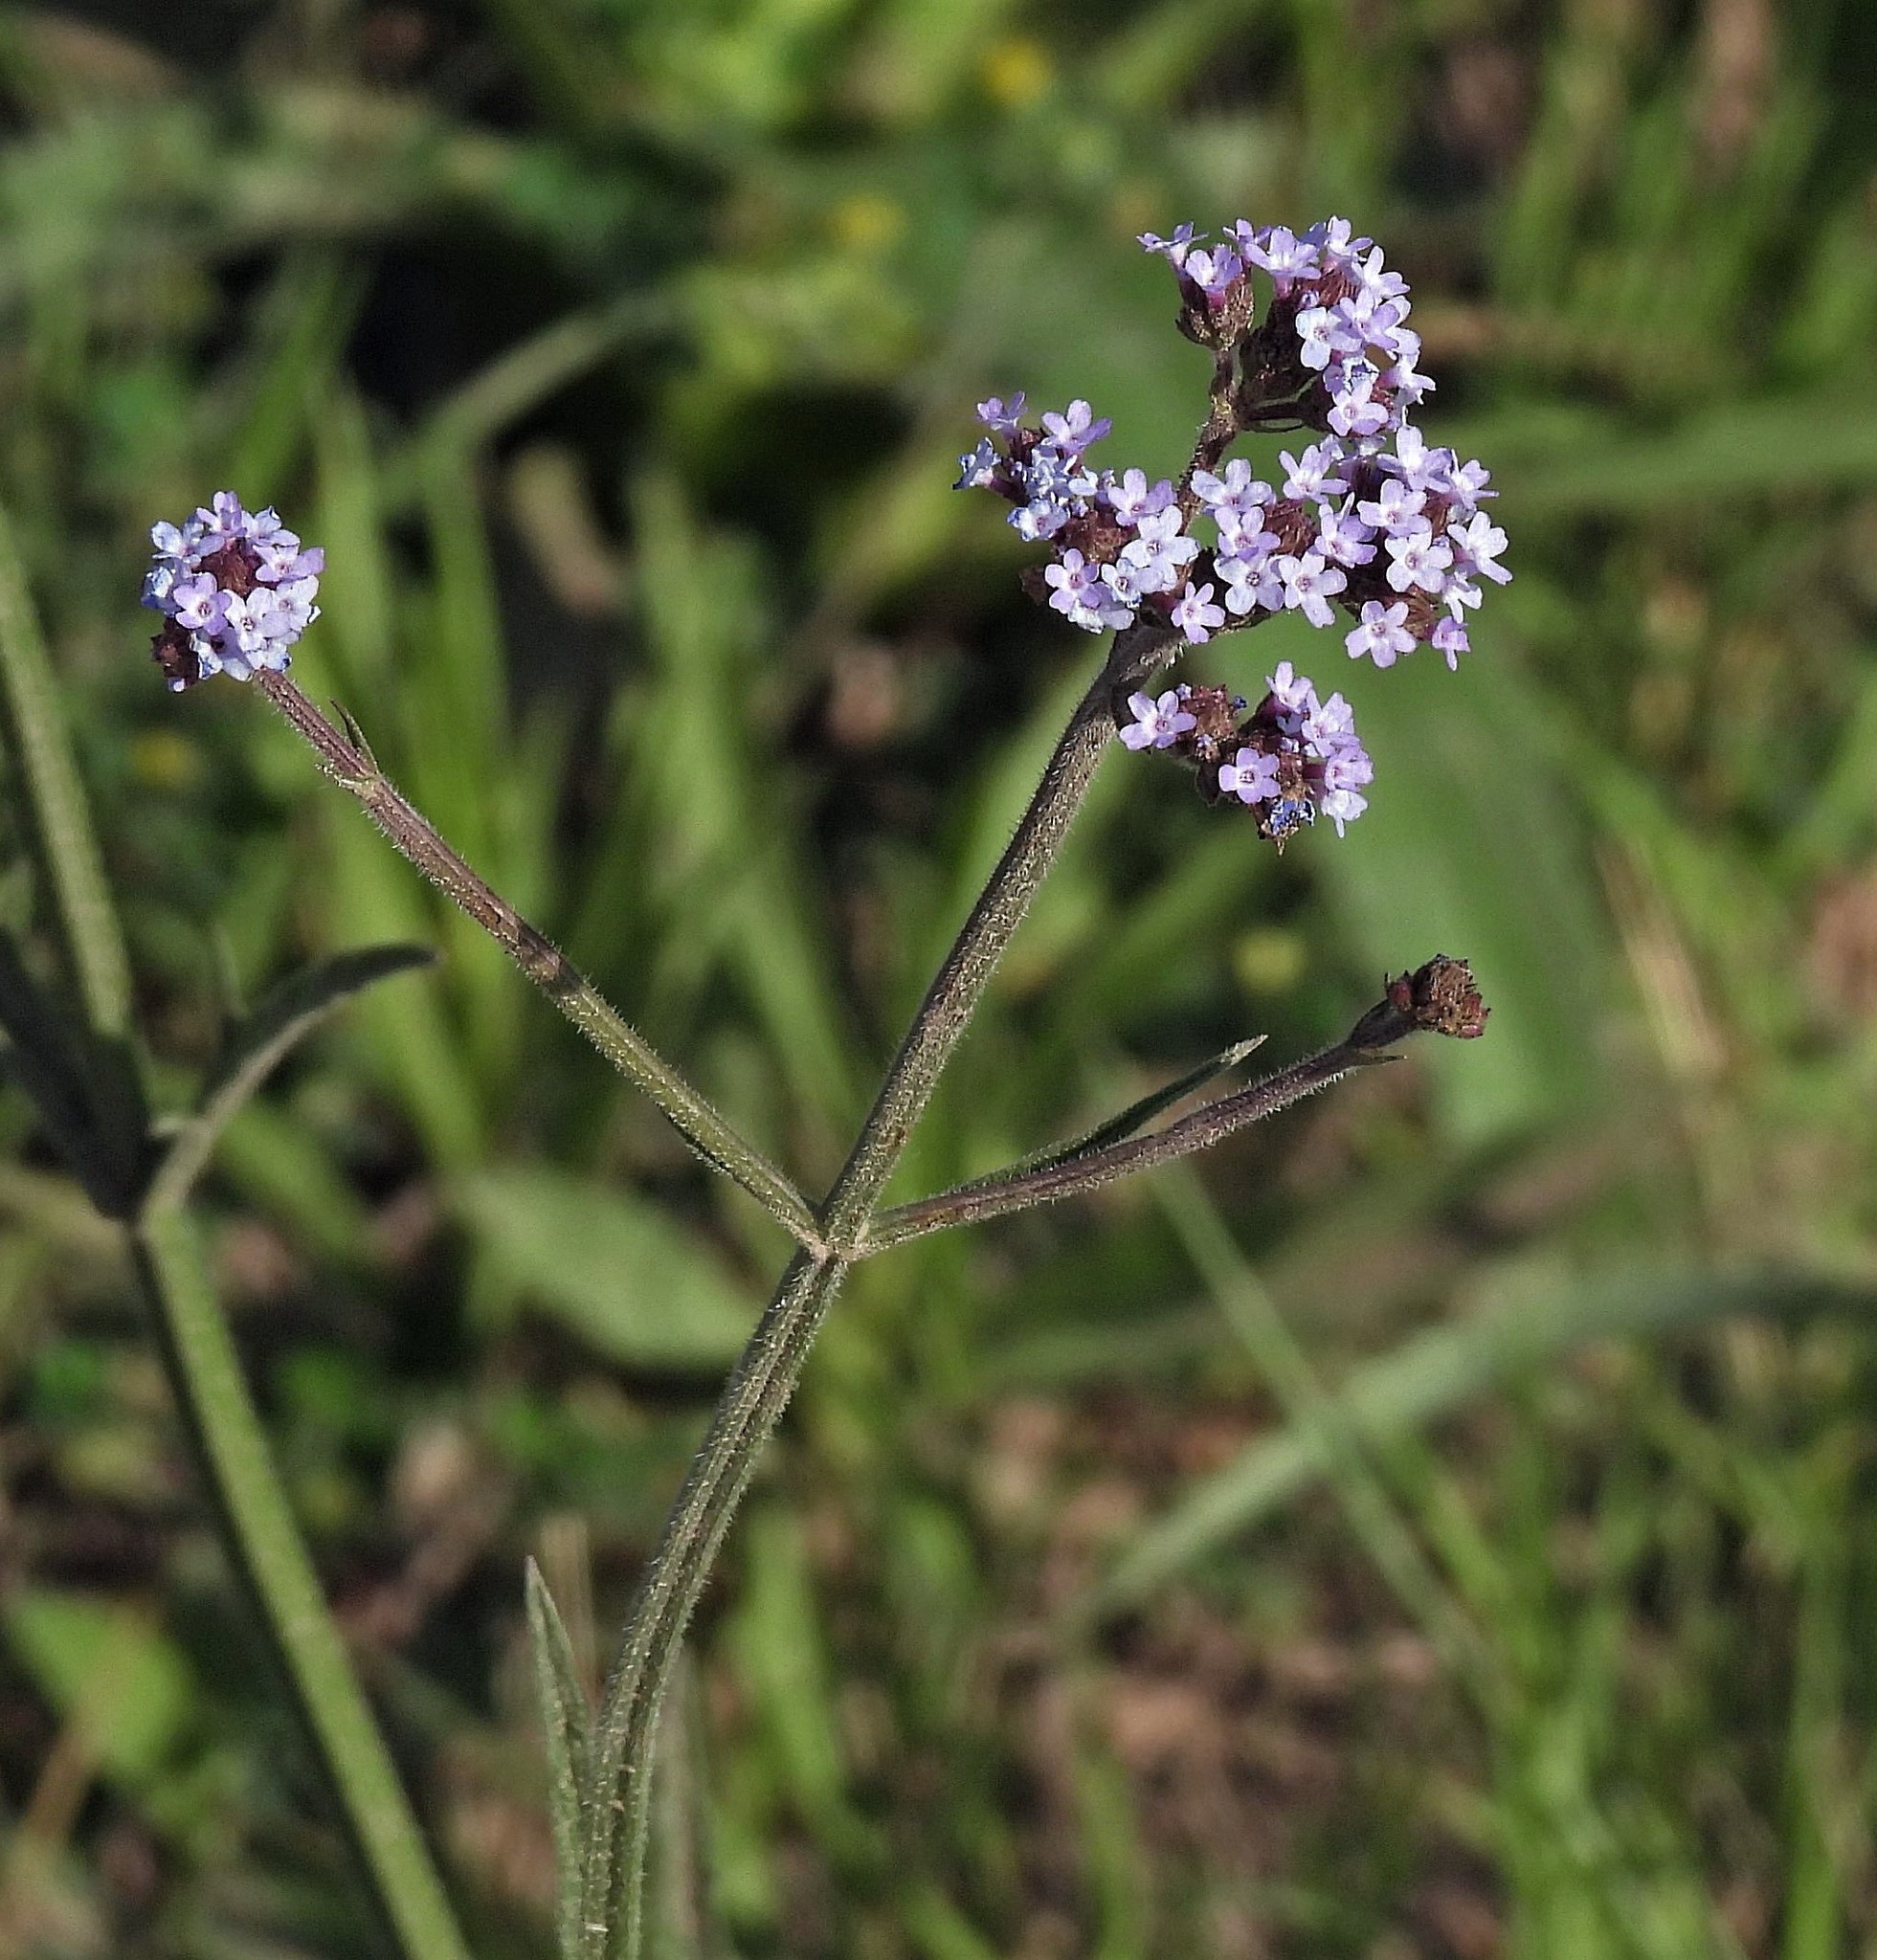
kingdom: Plantae
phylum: Tracheophyta
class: Magnoliopsida
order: Lamiales
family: Verbenaceae
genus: Verbena
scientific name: Verbena bonariensis
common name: Purpletop vervain
